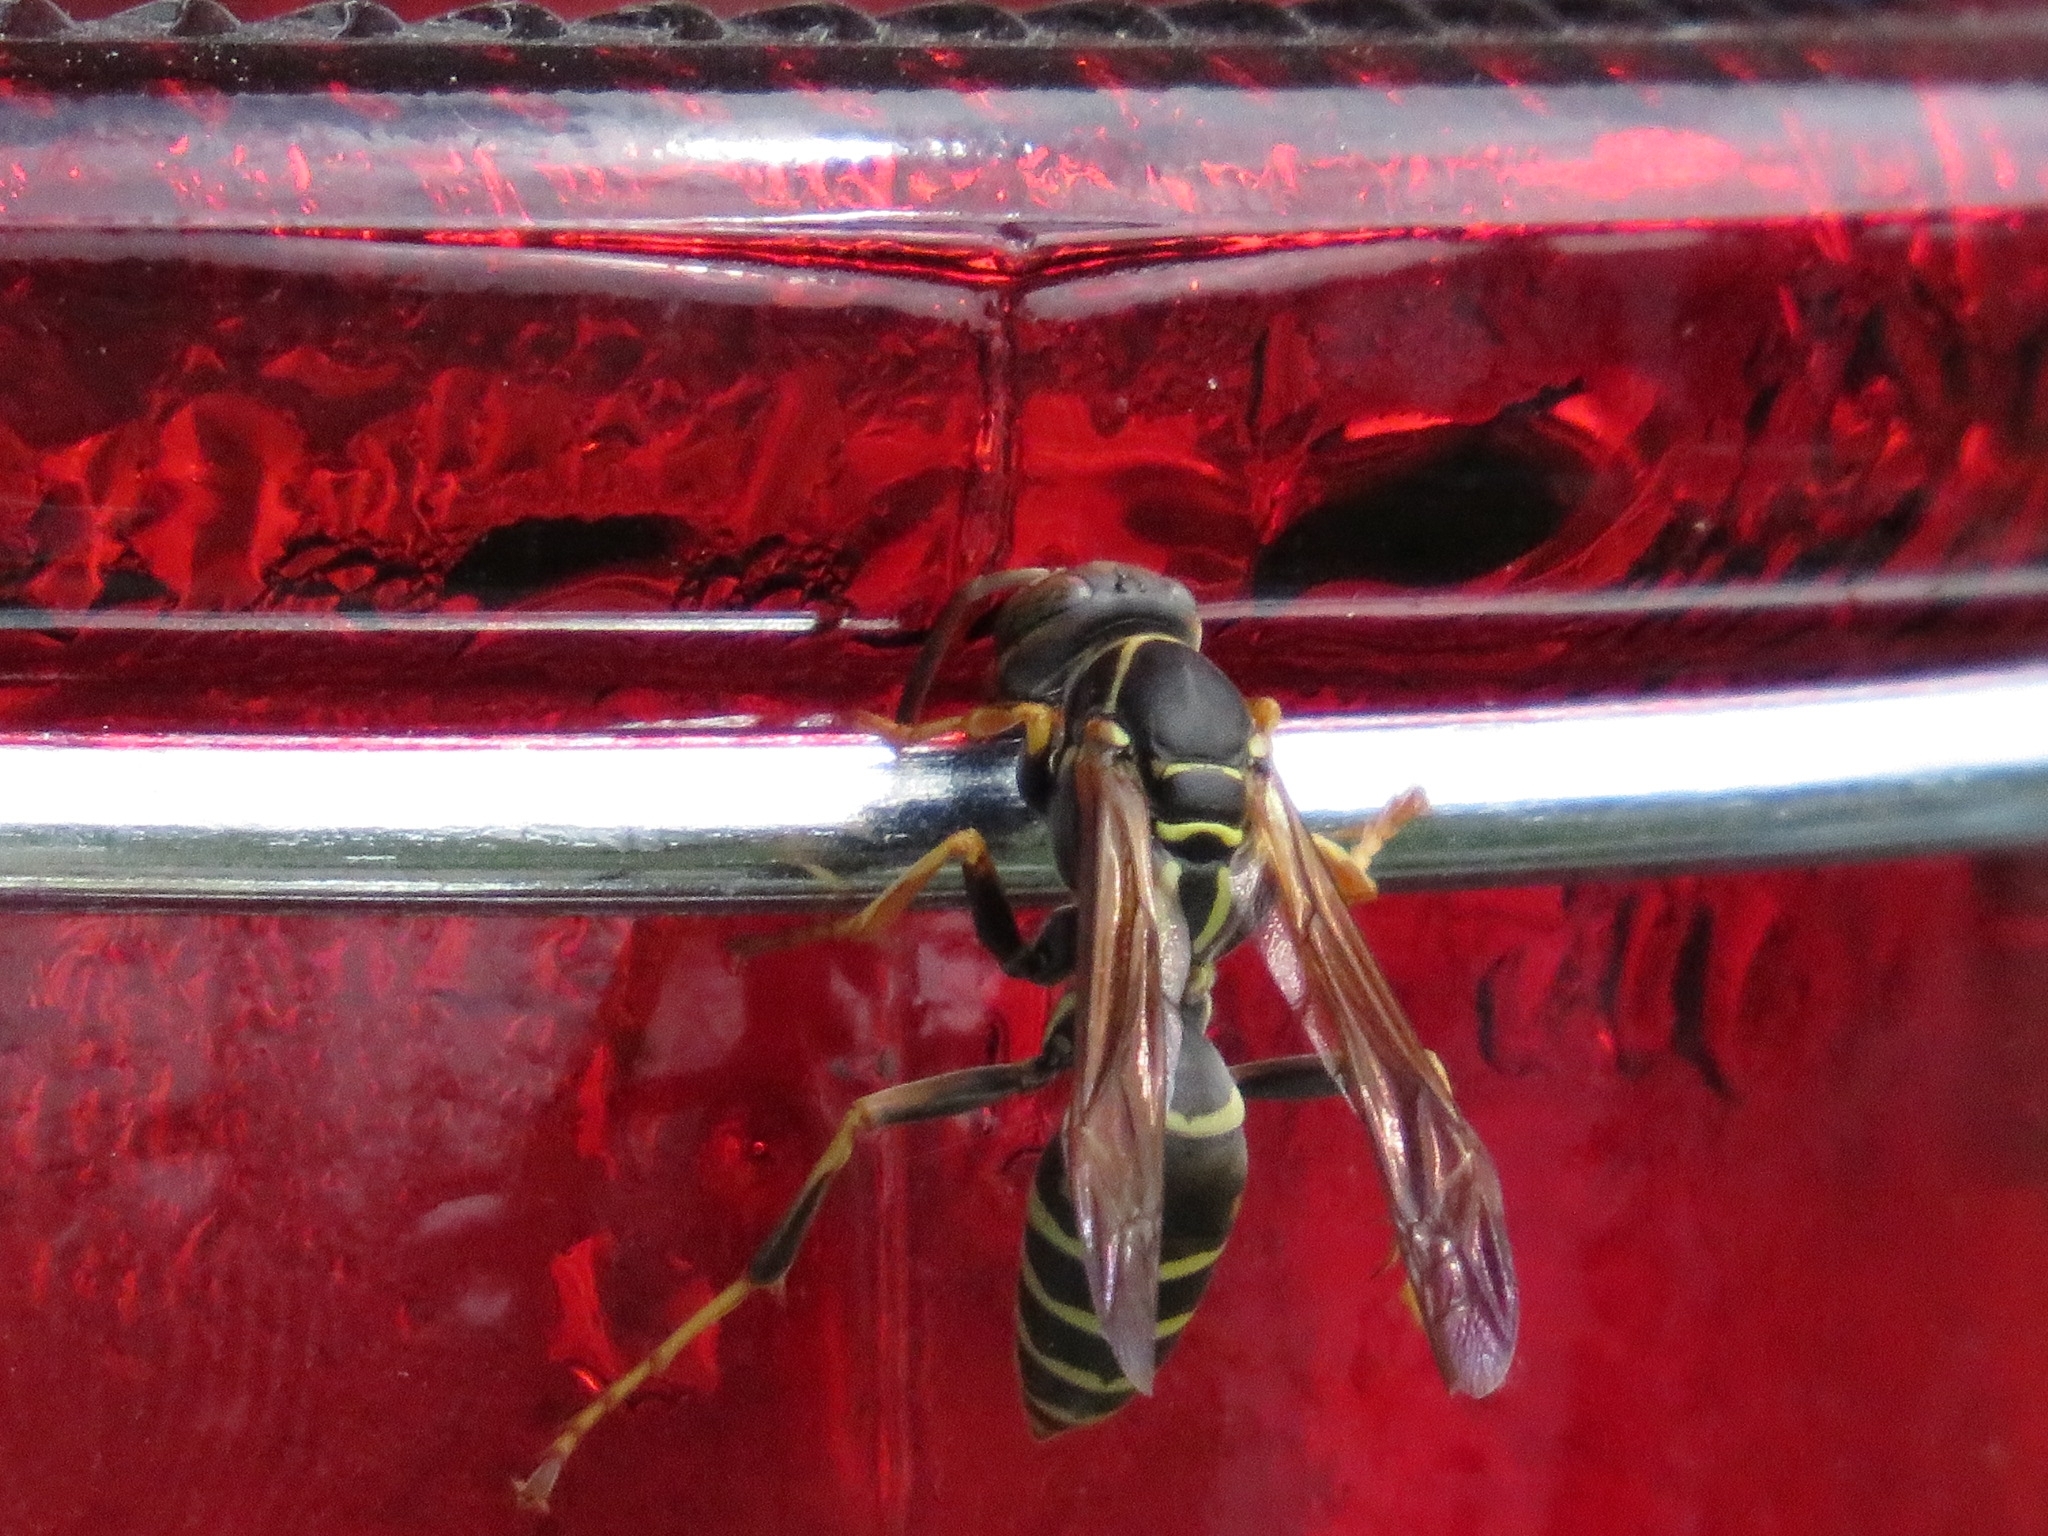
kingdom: Animalia
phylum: Arthropoda
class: Insecta
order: Hymenoptera
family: Eumenidae
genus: Polistes
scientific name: Polistes fuscatus
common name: Dark paper wasp
